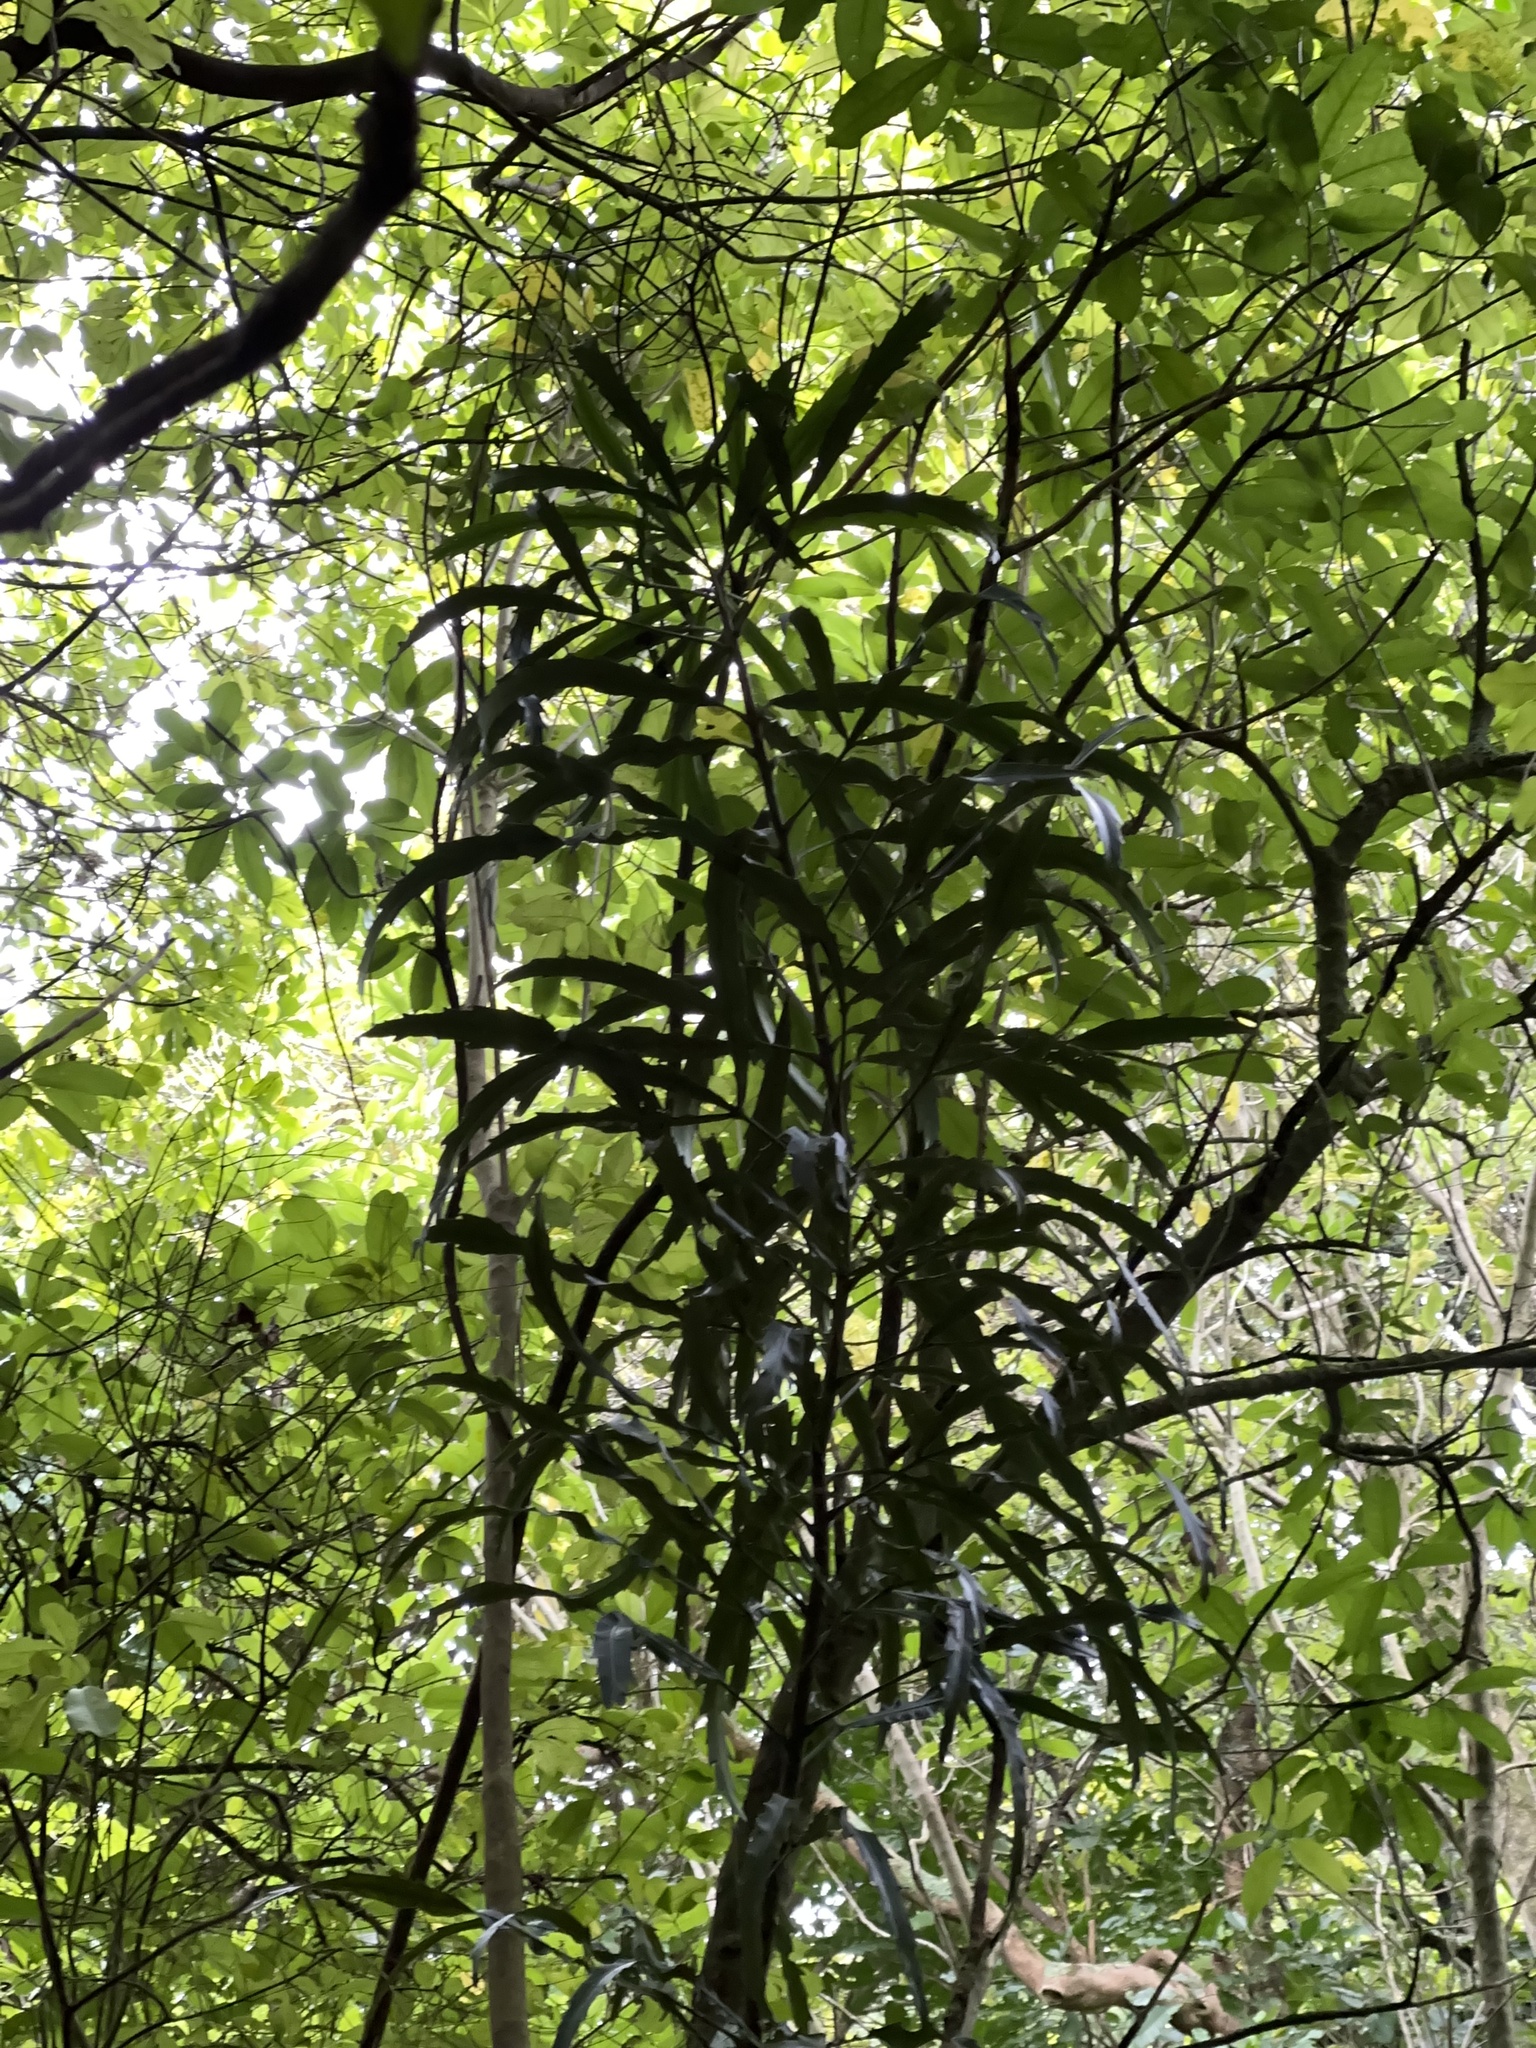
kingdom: Plantae
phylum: Tracheophyta
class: Magnoliopsida
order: Apiales
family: Araliaceae
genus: Pseudopanax
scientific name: Pseudopanax
